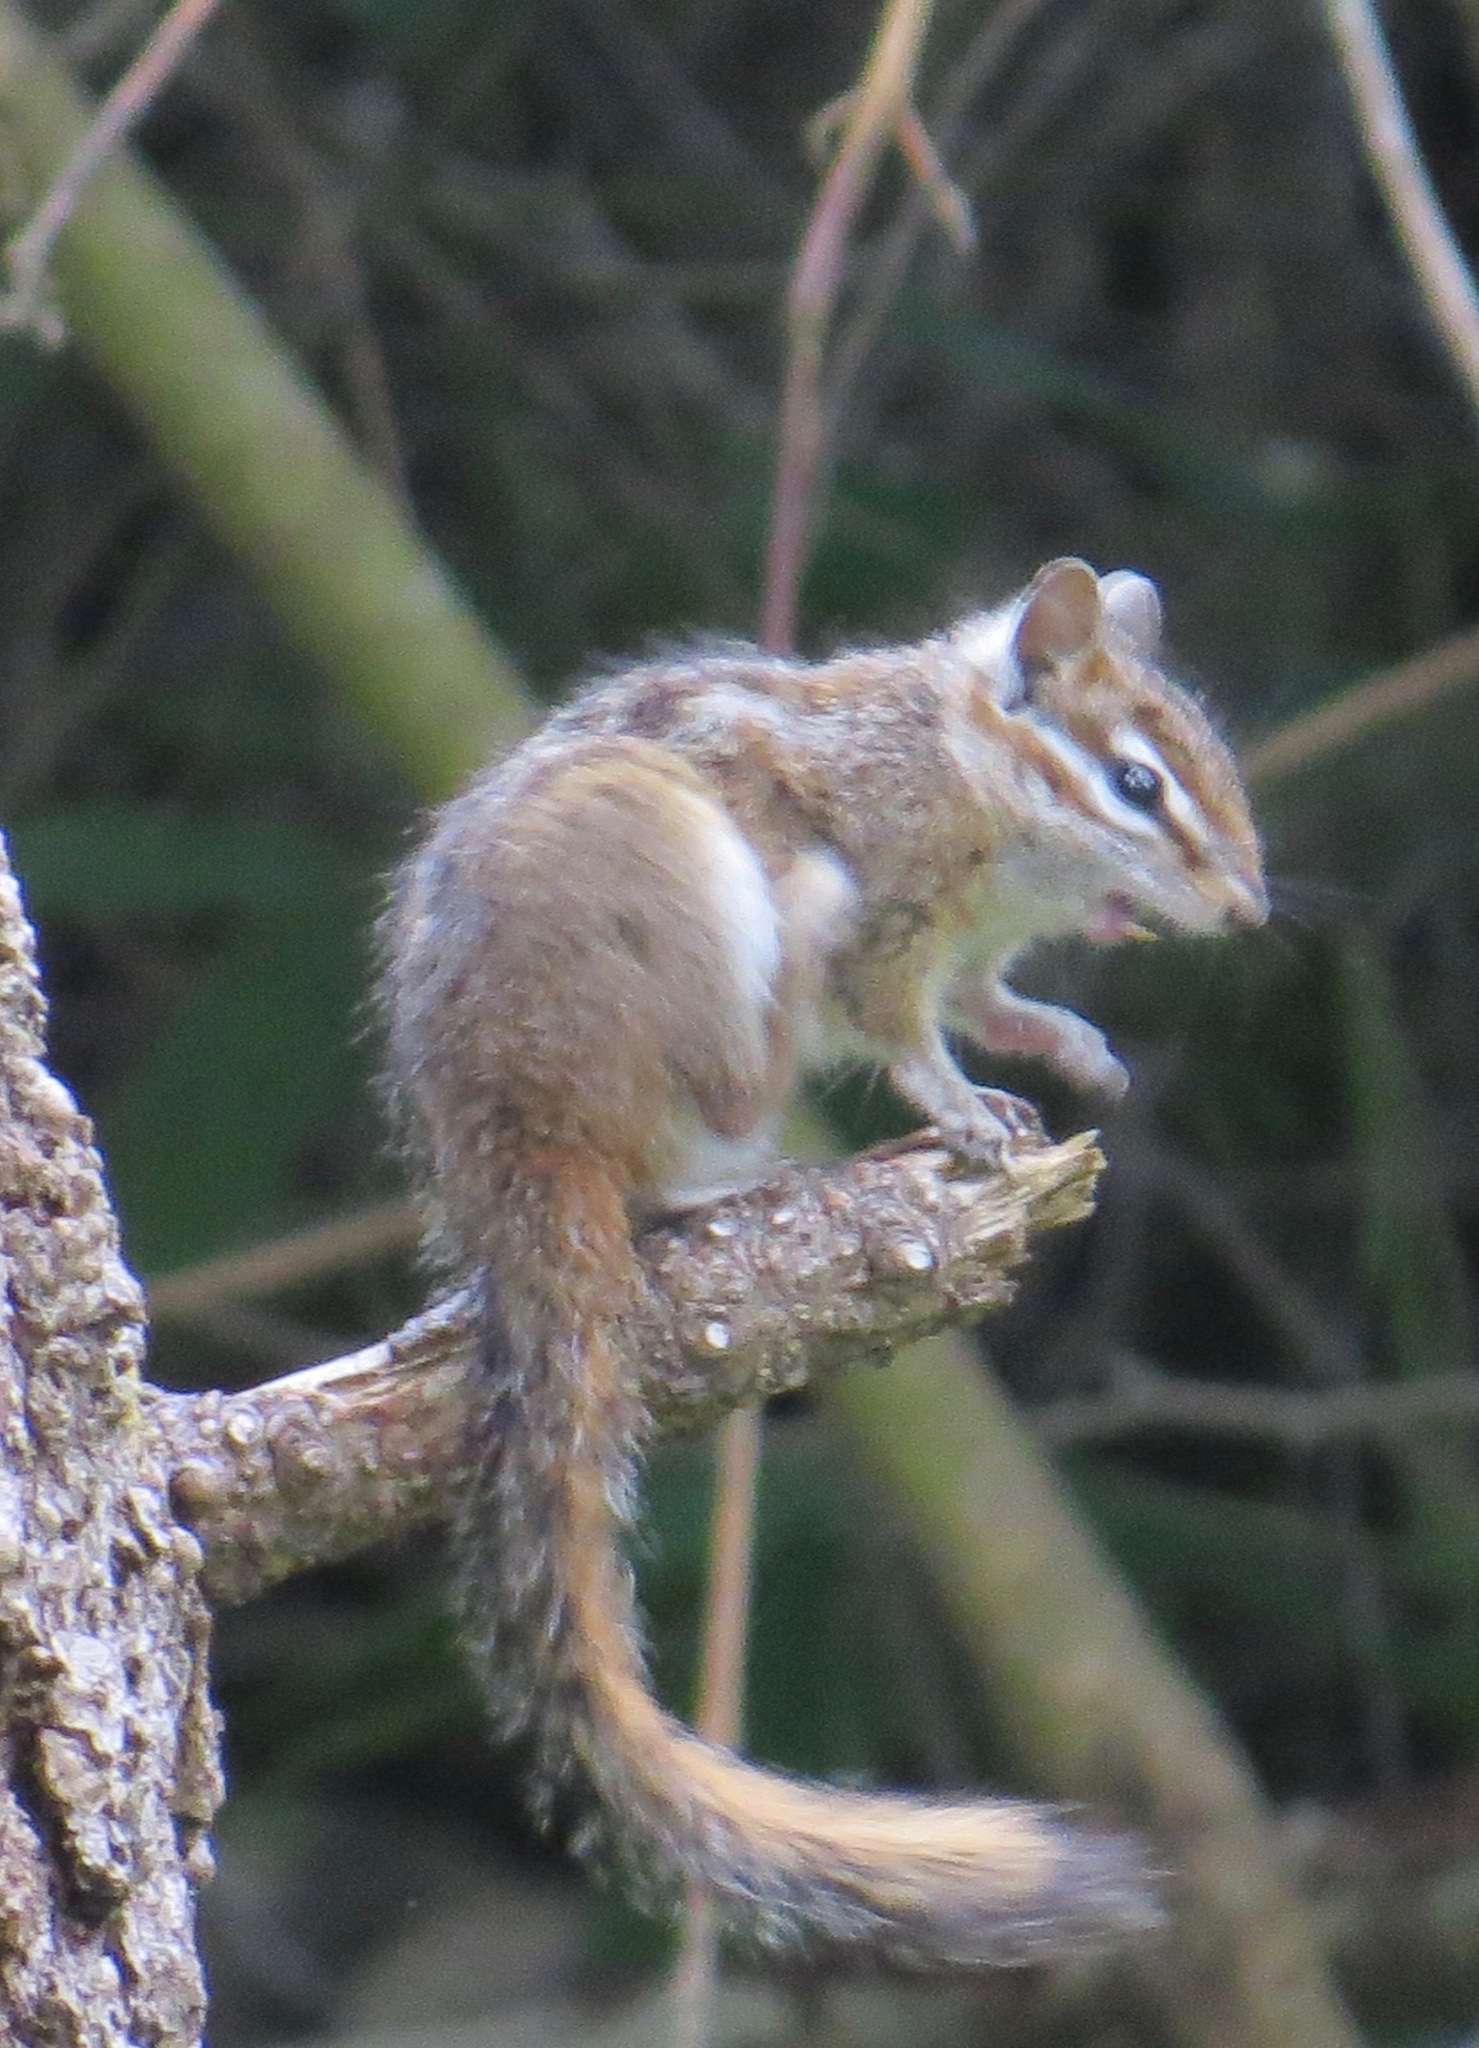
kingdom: Animalia
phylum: Chordata
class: Mammalia
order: Rodentia
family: Sciuridae
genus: Tamias
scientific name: Tamias merriami
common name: Merriam's chipmunk
